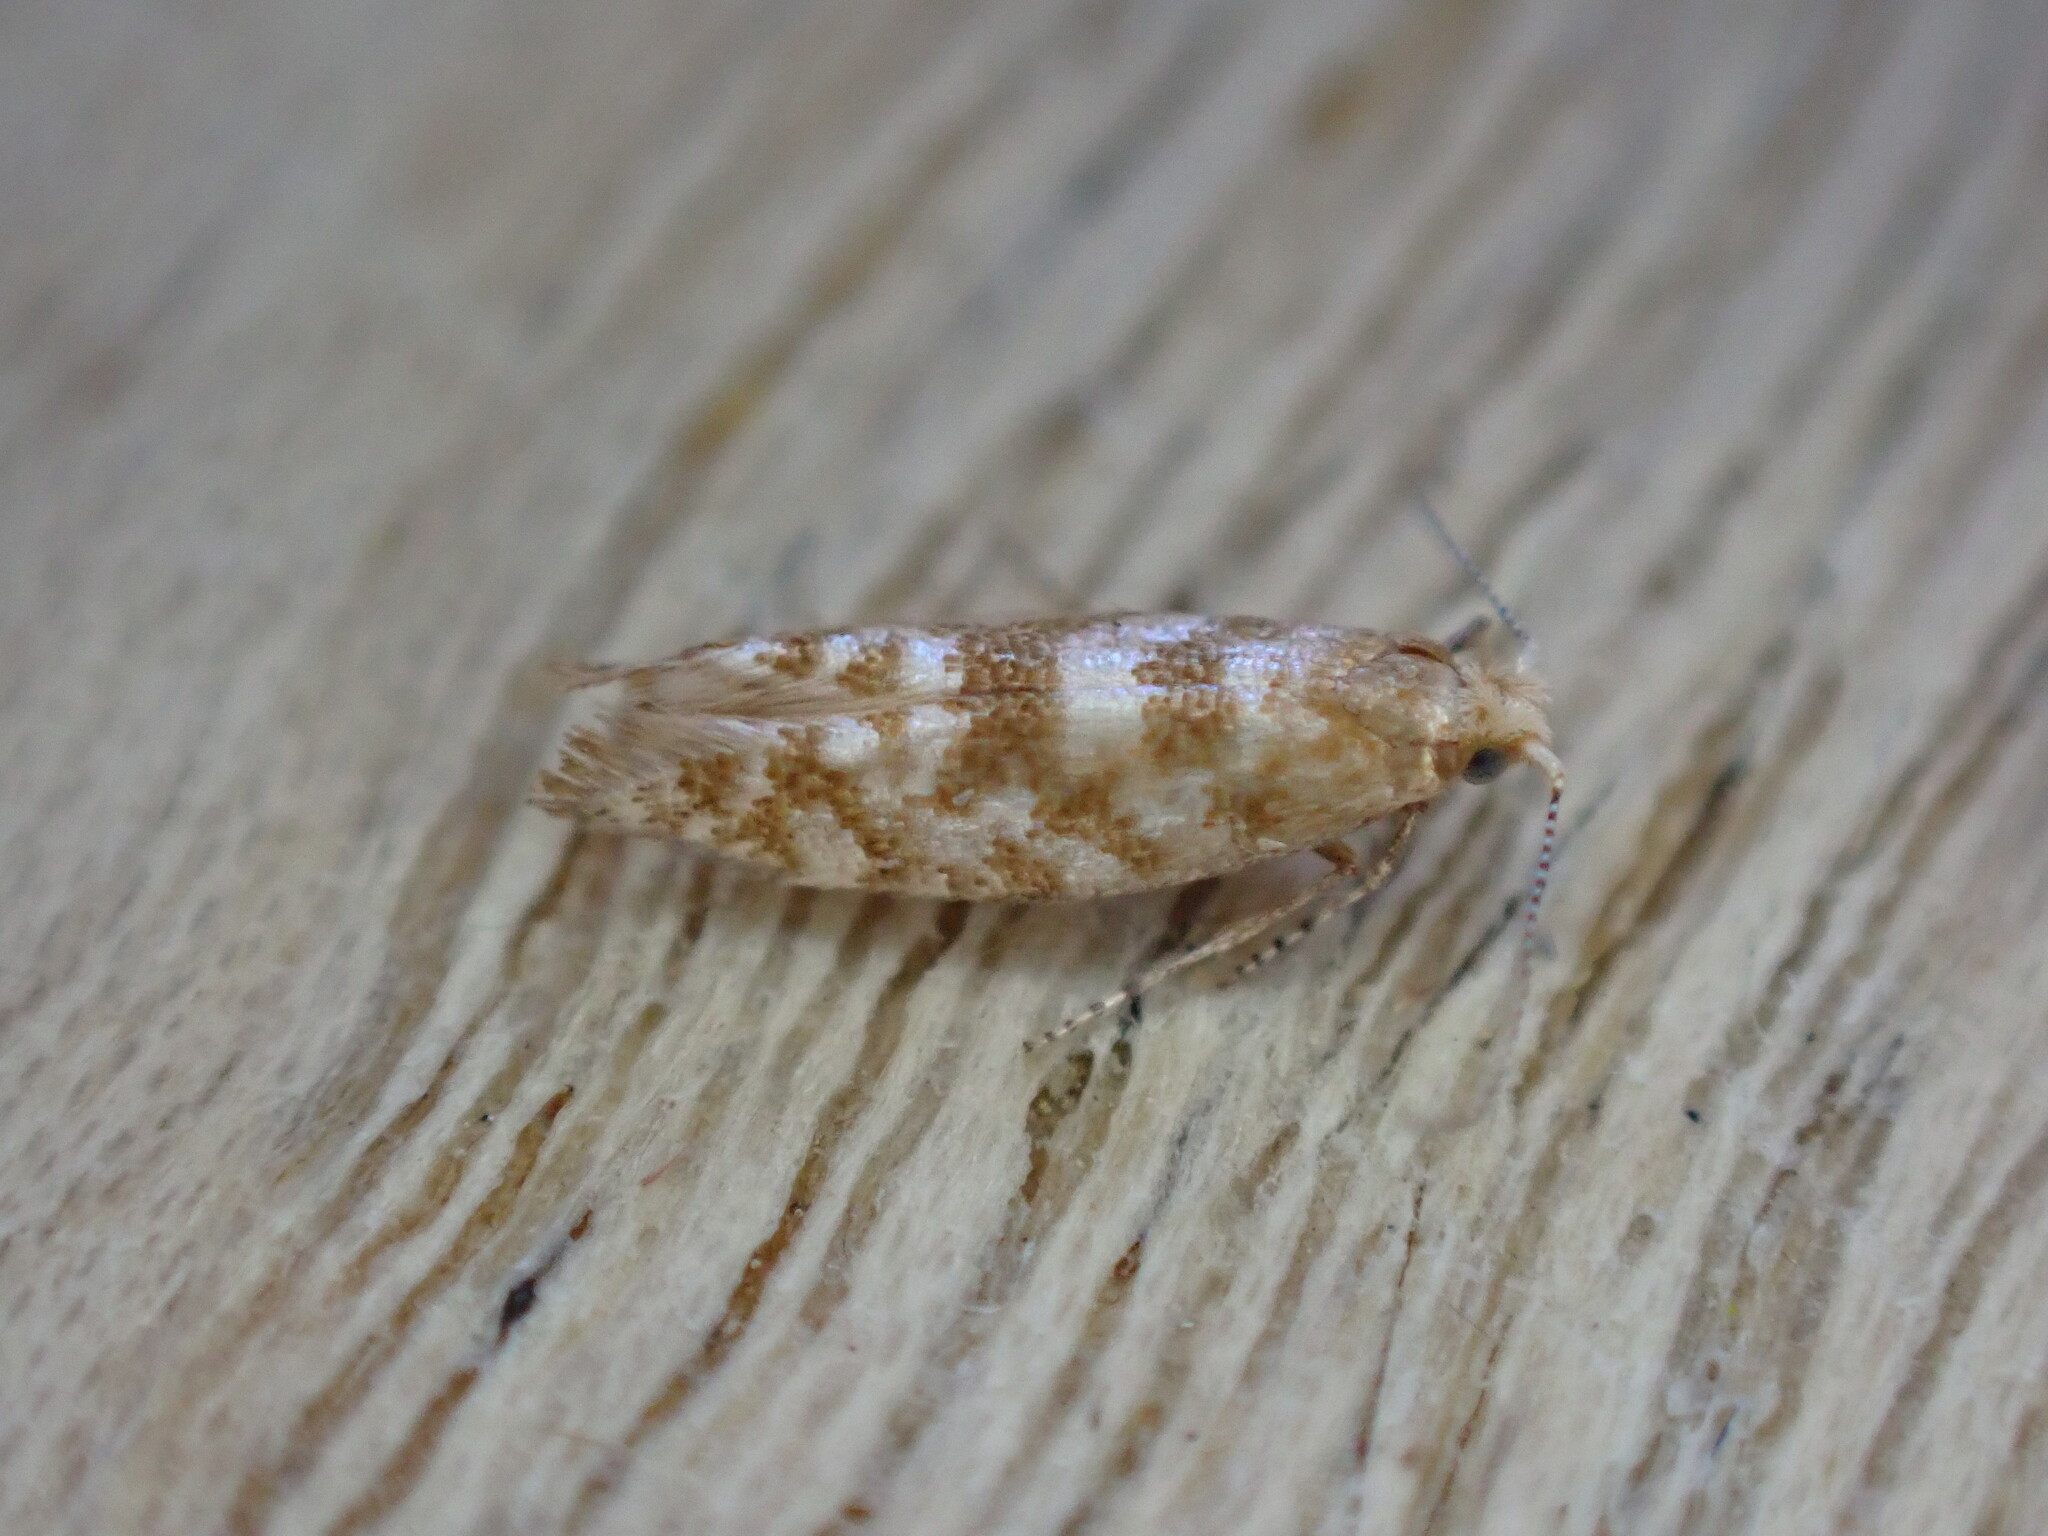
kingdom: Animalia
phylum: Arthropoda
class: Insecta
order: Lepidoptera
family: Argyresthiidae
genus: Argyresthia
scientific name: Argyresthia cupressella
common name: Cypress tip moth
